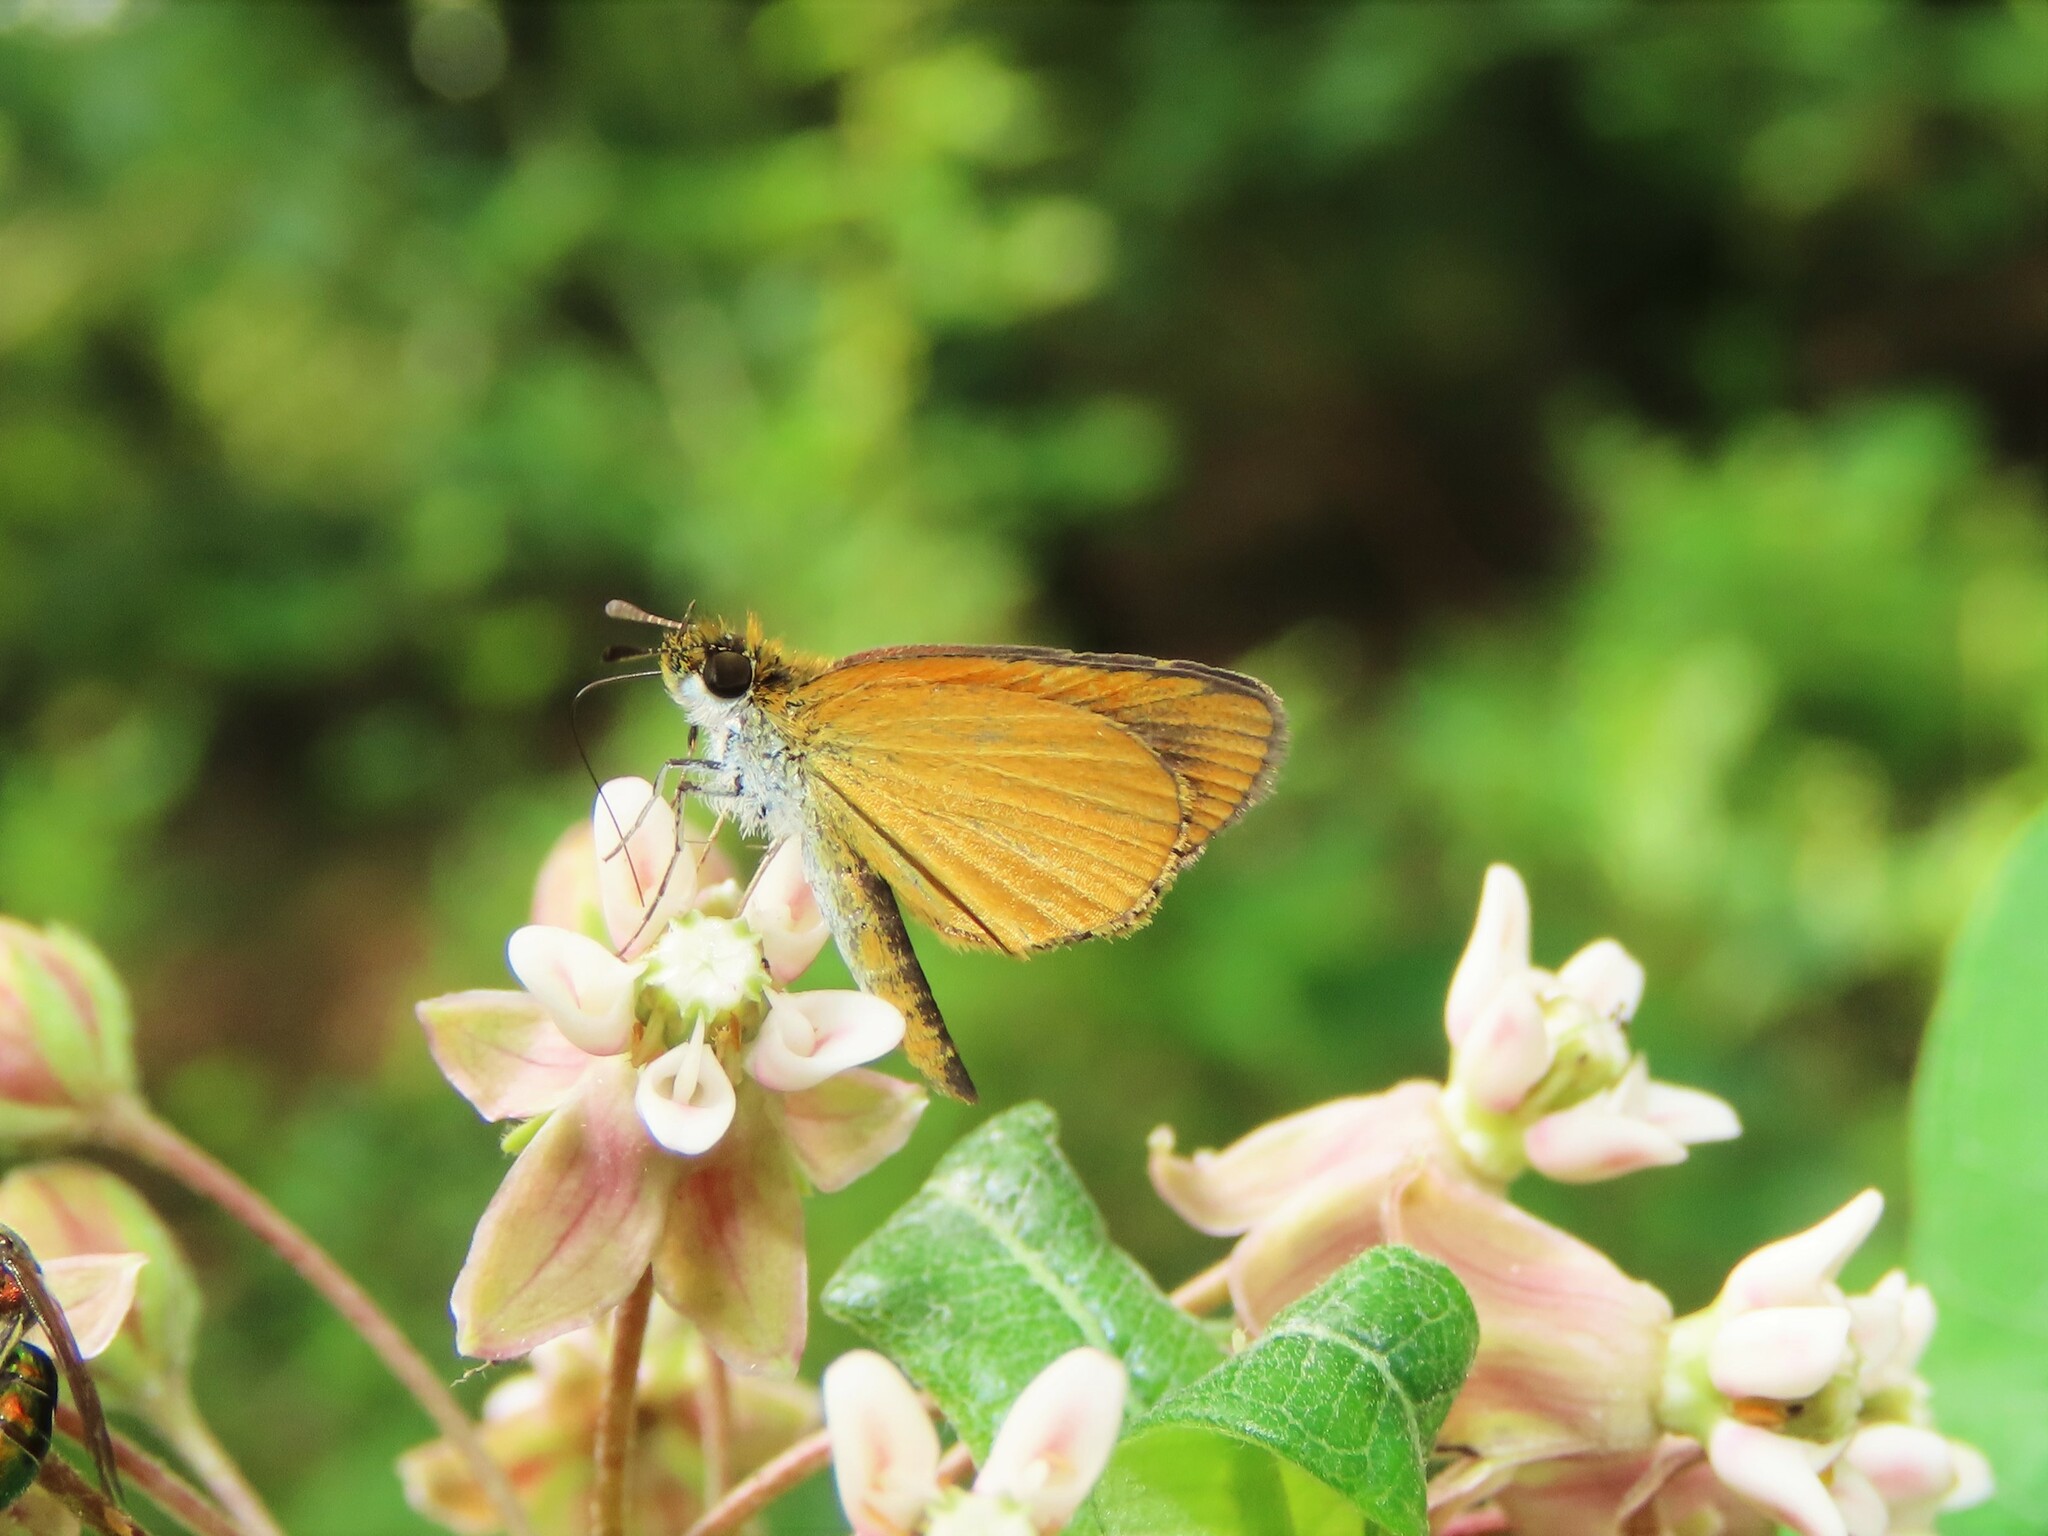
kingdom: Animalia
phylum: Arthropoda
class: Insecta
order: Lepidoptera
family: Hesperiidae
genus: Ancyloxypha
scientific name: Ancyloxypha numitor
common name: Least skipper
